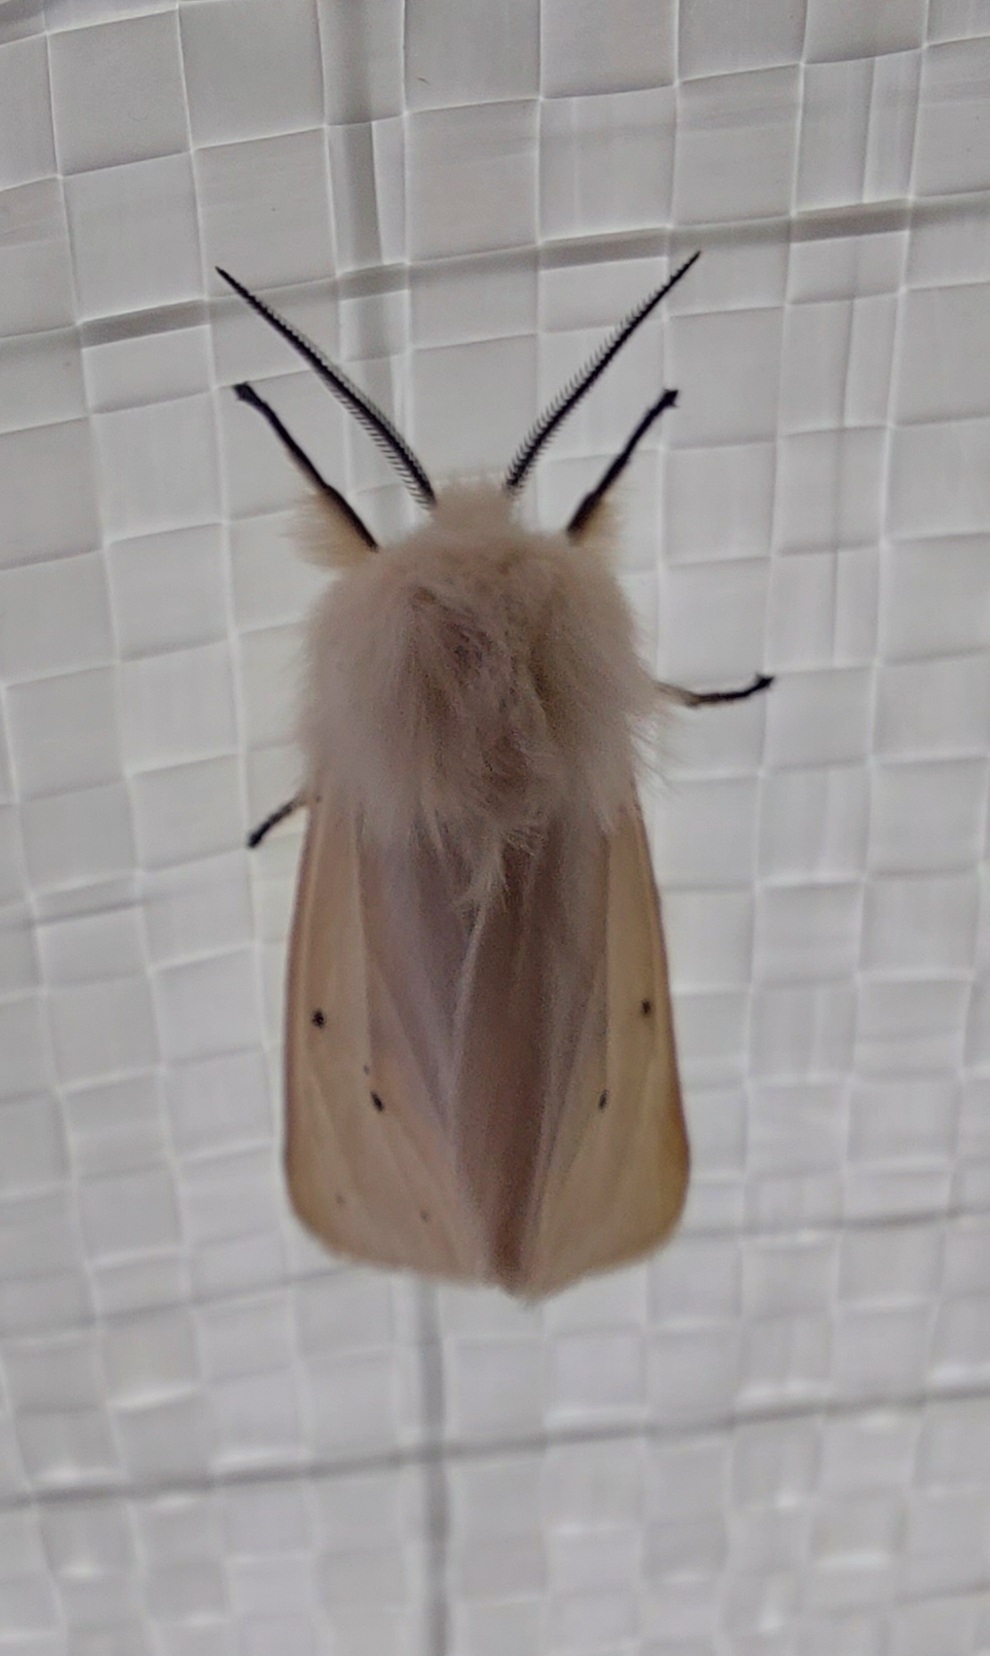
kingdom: Animalia
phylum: Arthropoda
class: Insecta
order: Lepidoptera
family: Erebidae
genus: Diaphora
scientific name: Diaphora mendica
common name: Muslin moth
